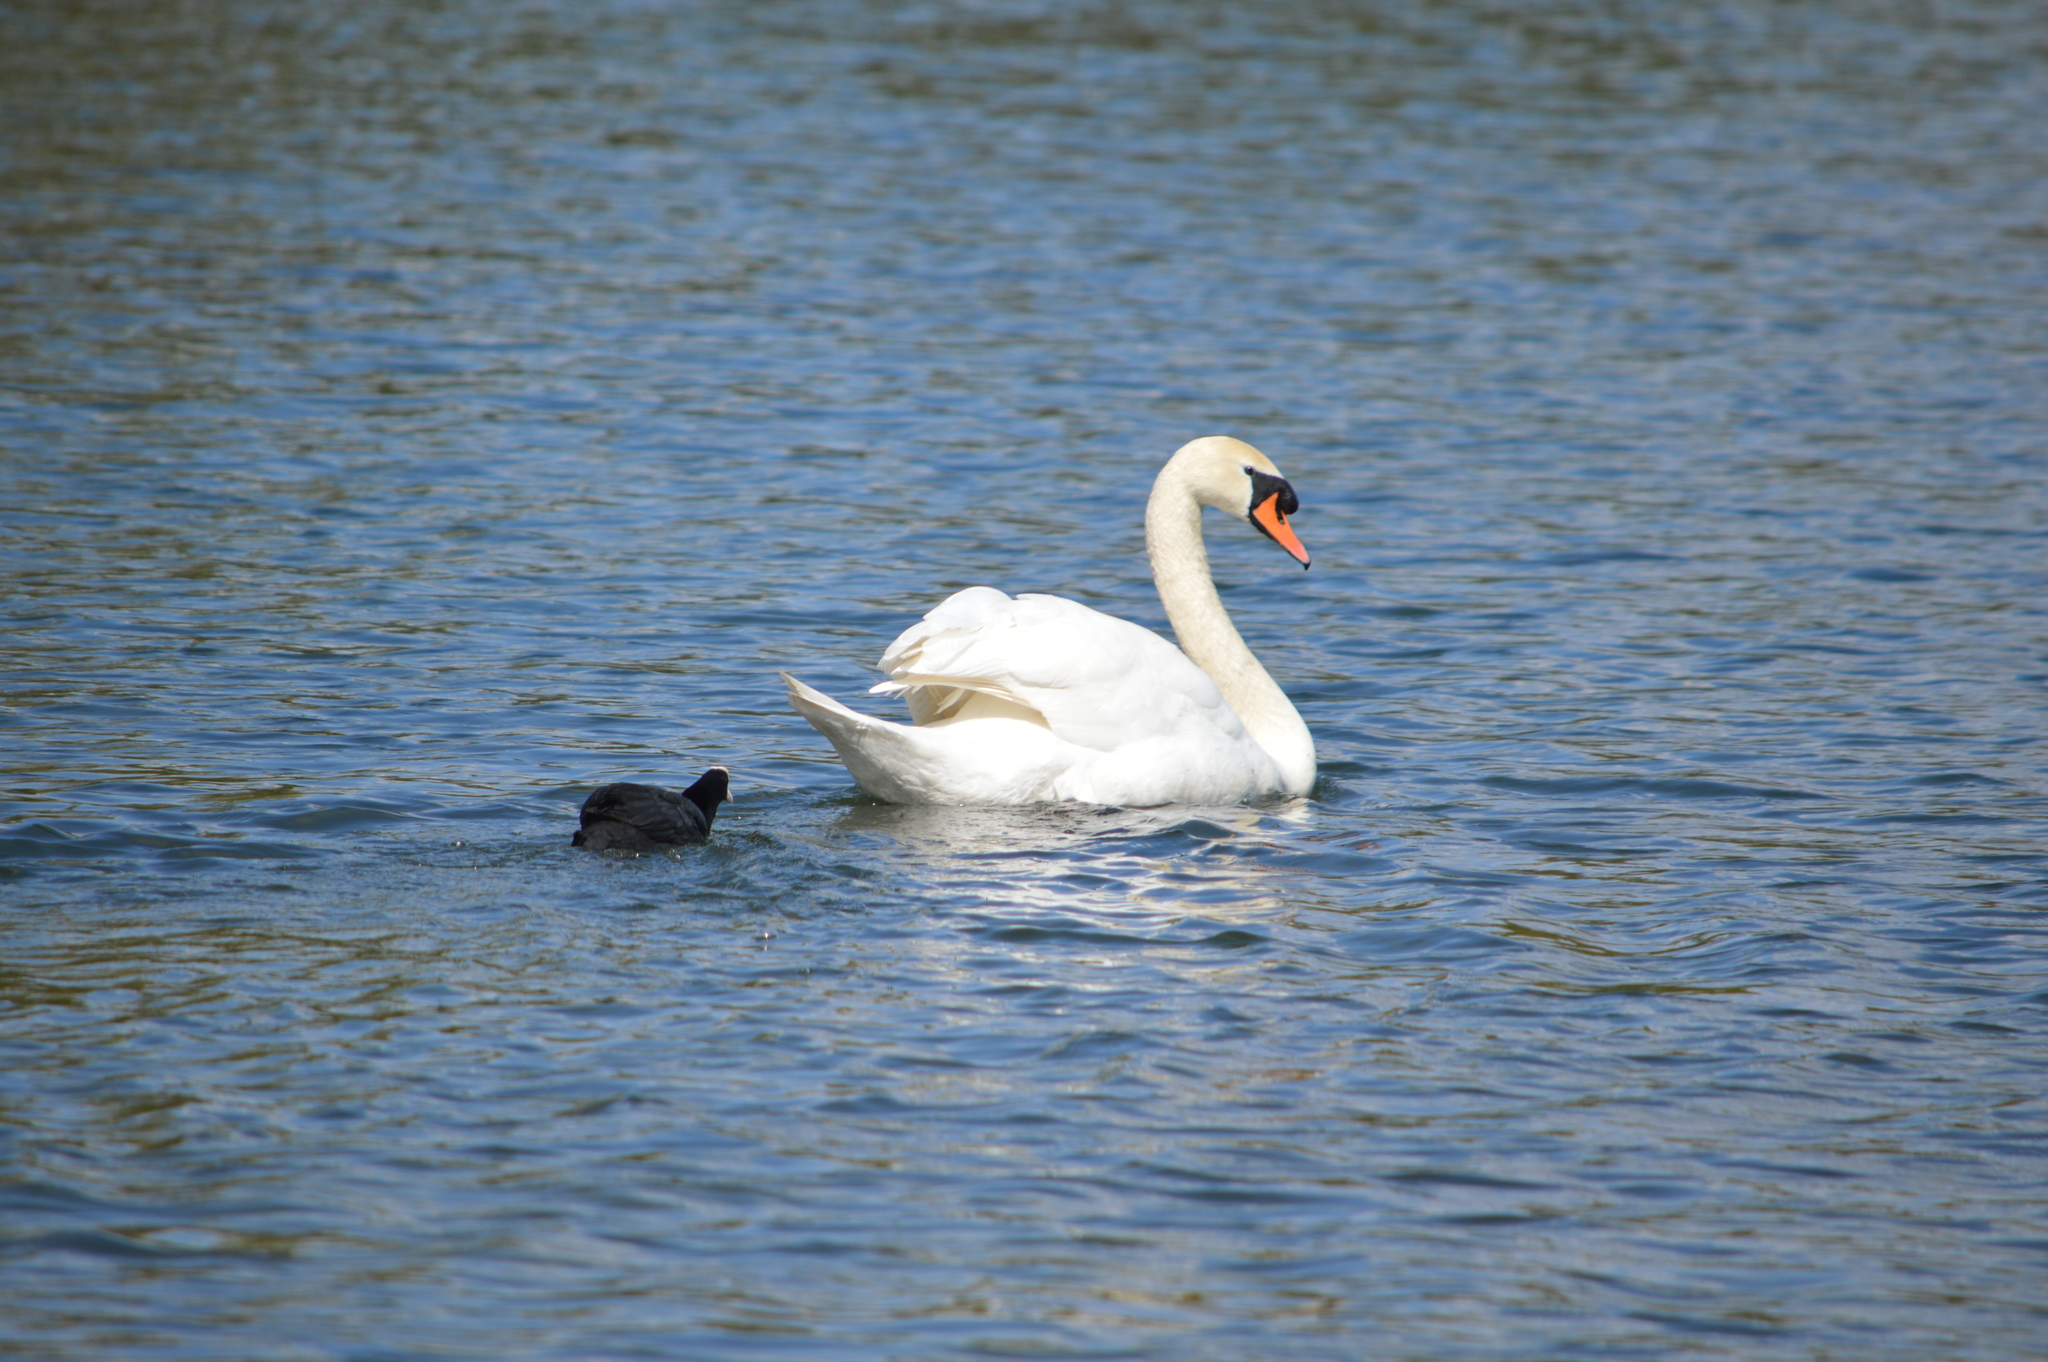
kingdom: Animalia
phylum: Chordata
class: Aves
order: Anseriformes
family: Anatidae
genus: Cygnus
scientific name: Cygnus olor
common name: Mute swan
